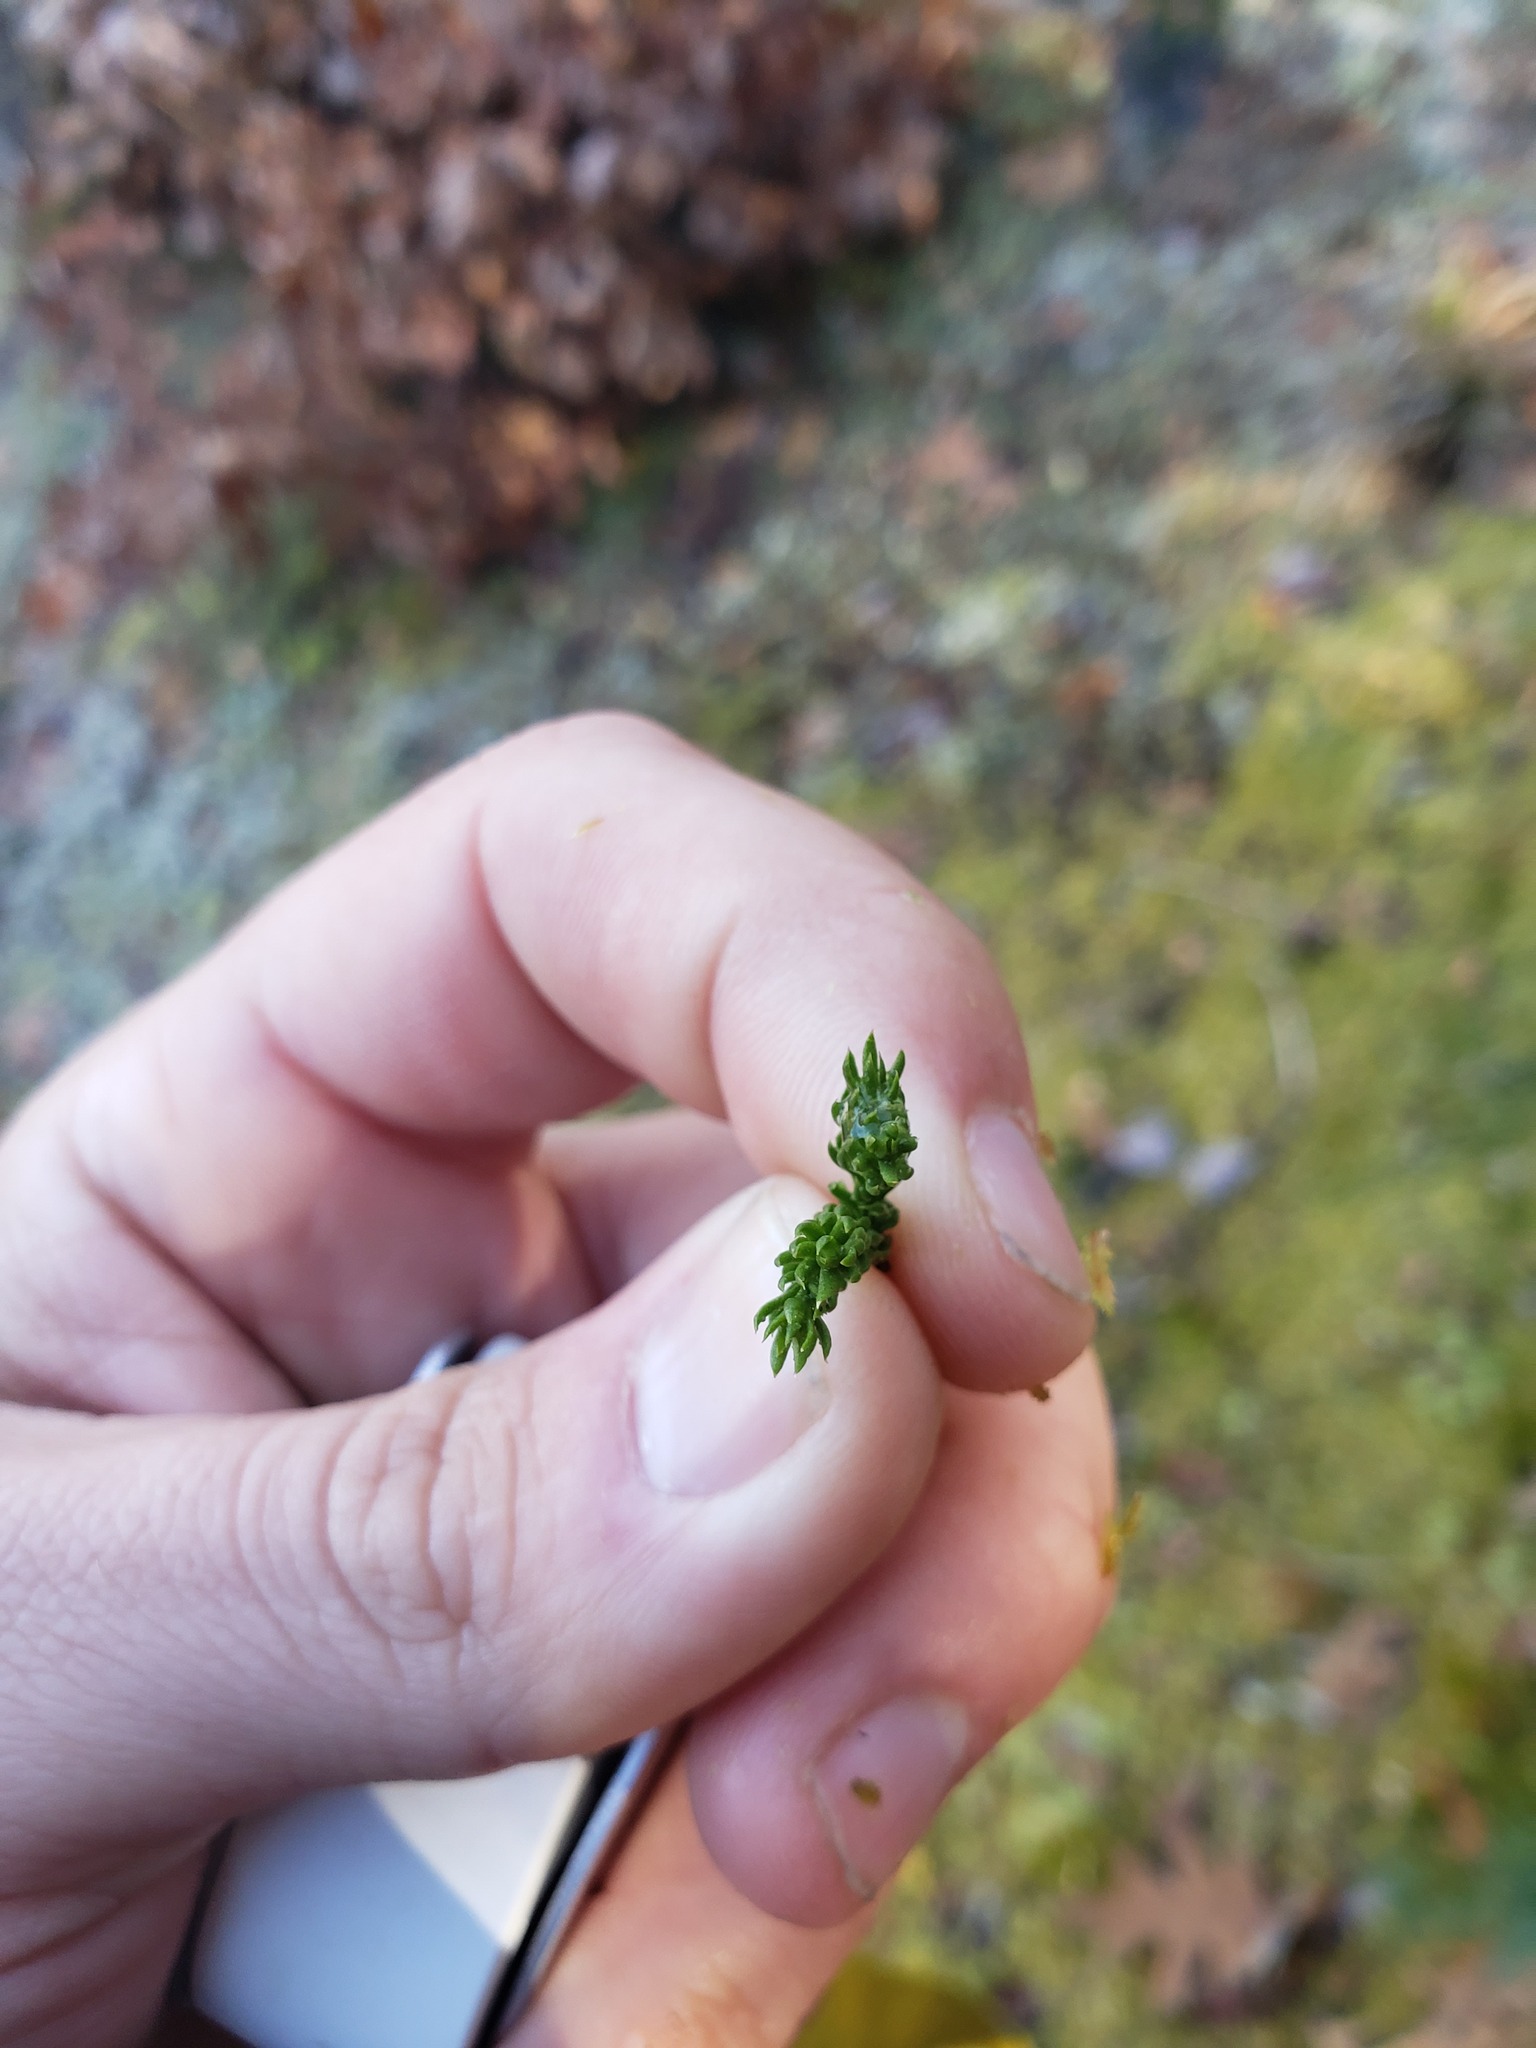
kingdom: Plantae
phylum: Tracheophyta
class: Lycopodiopsida
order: Lycopodiales
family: Lycopodiaceae
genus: Dendrolycopodium
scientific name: Dendrolycopodium hickeyi
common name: Hickey's clubmoss
